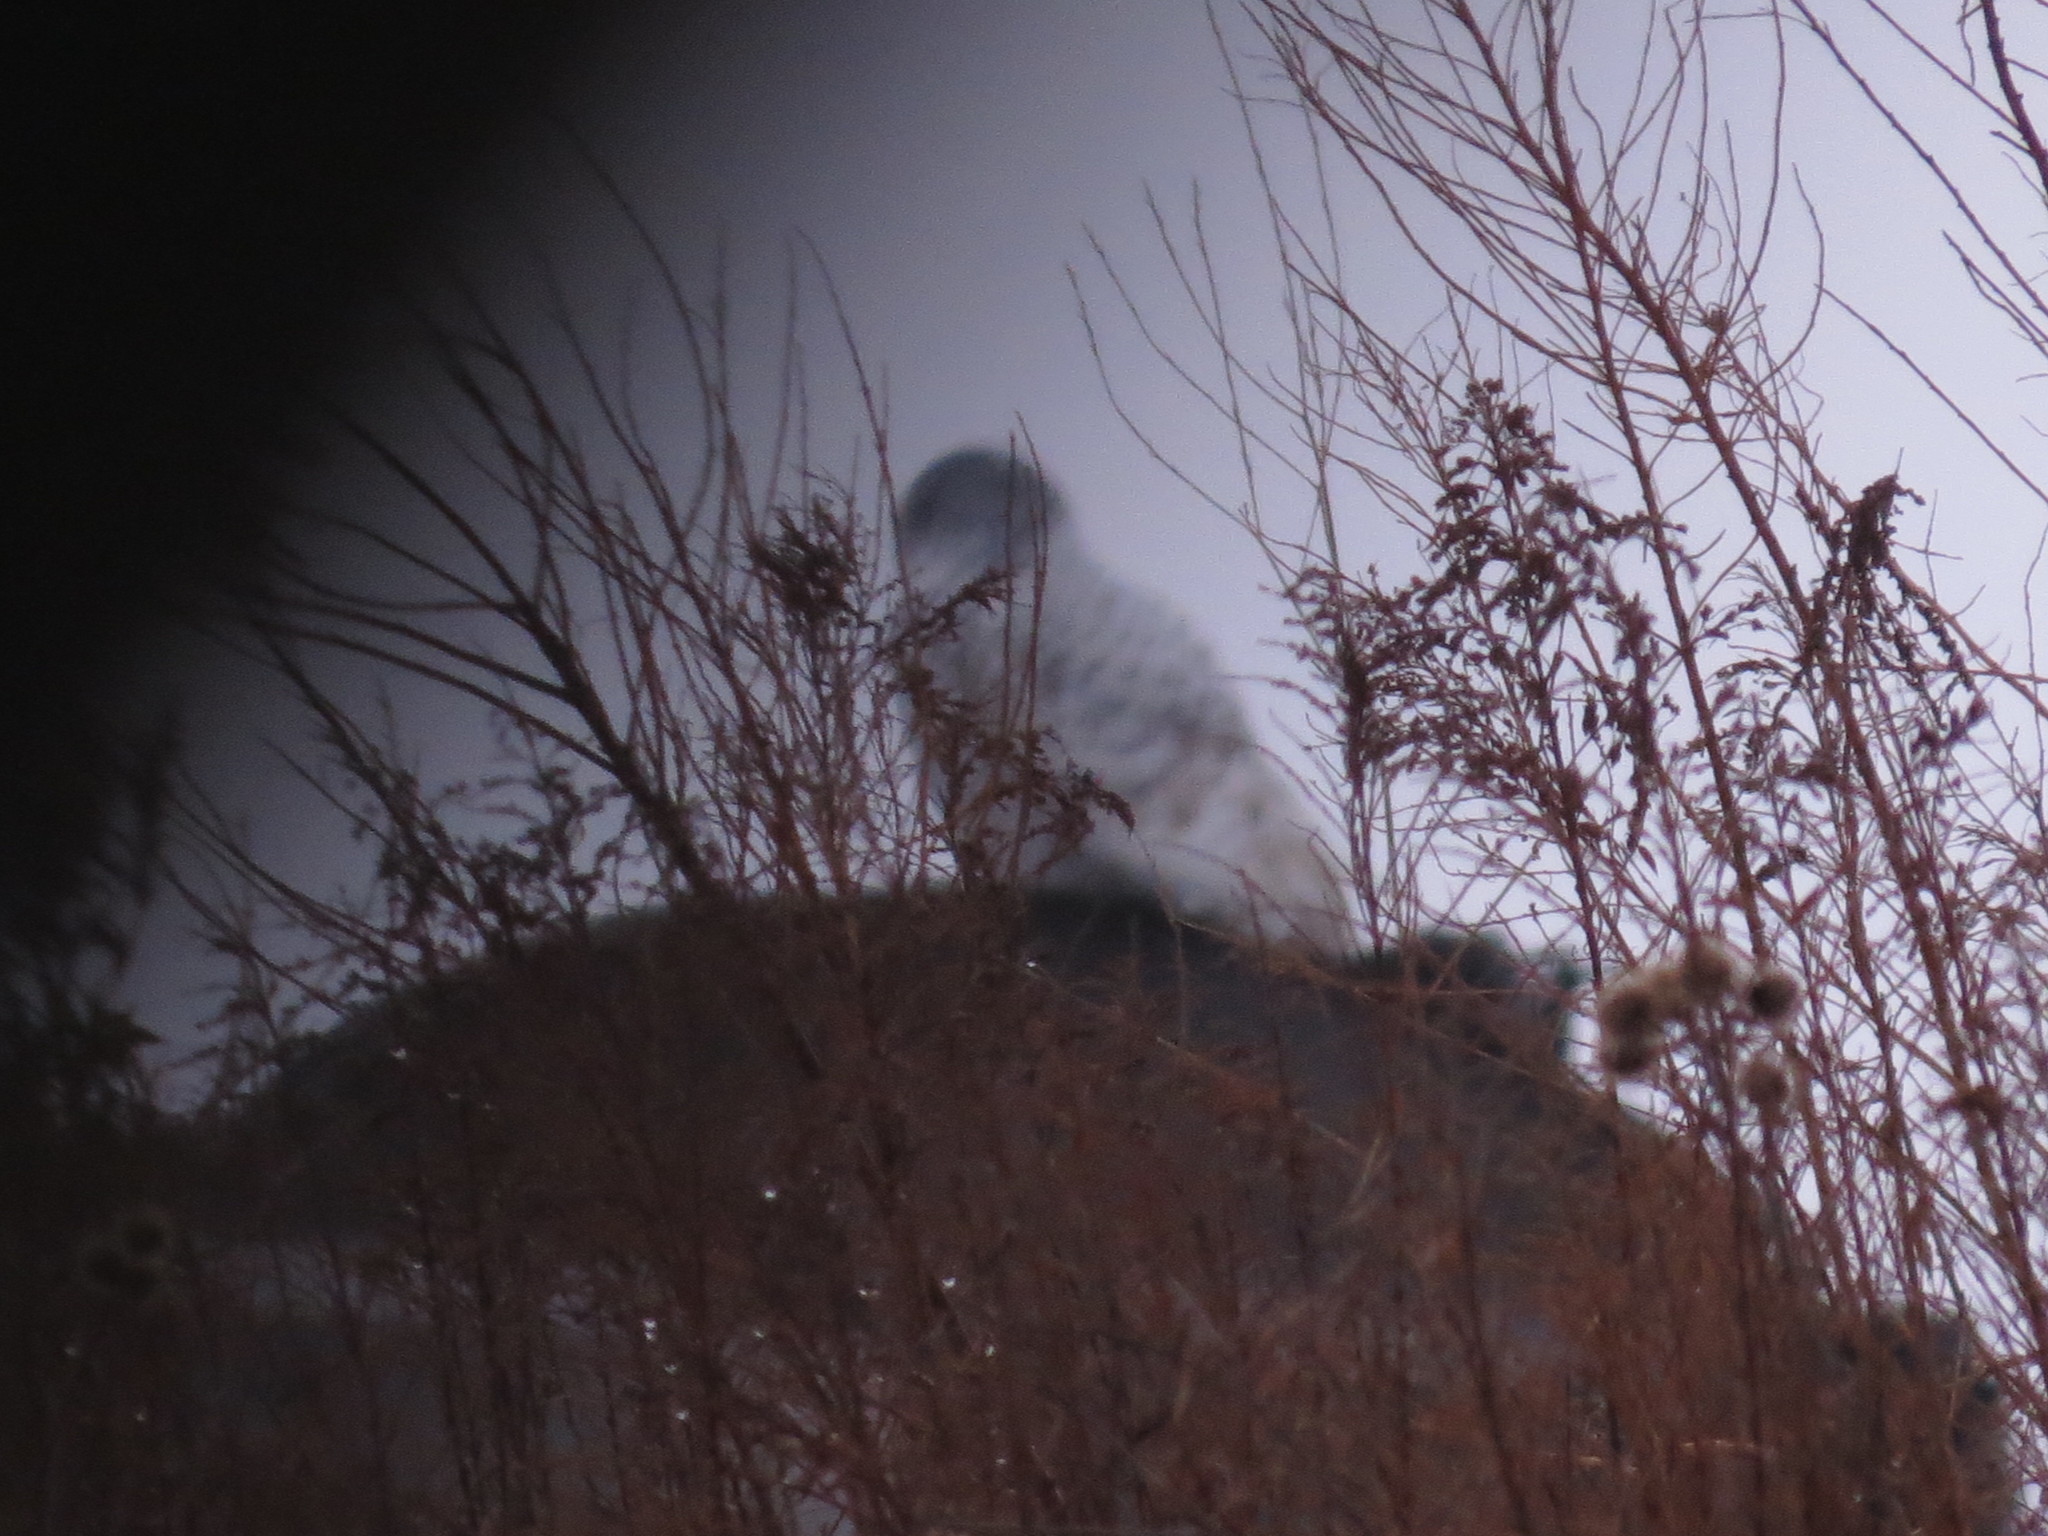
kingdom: Animalia
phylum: Chordata
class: Aves
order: Strigiformes
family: Strigidae
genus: Bubo
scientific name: Bubo scandiacus
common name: Snowy owl
